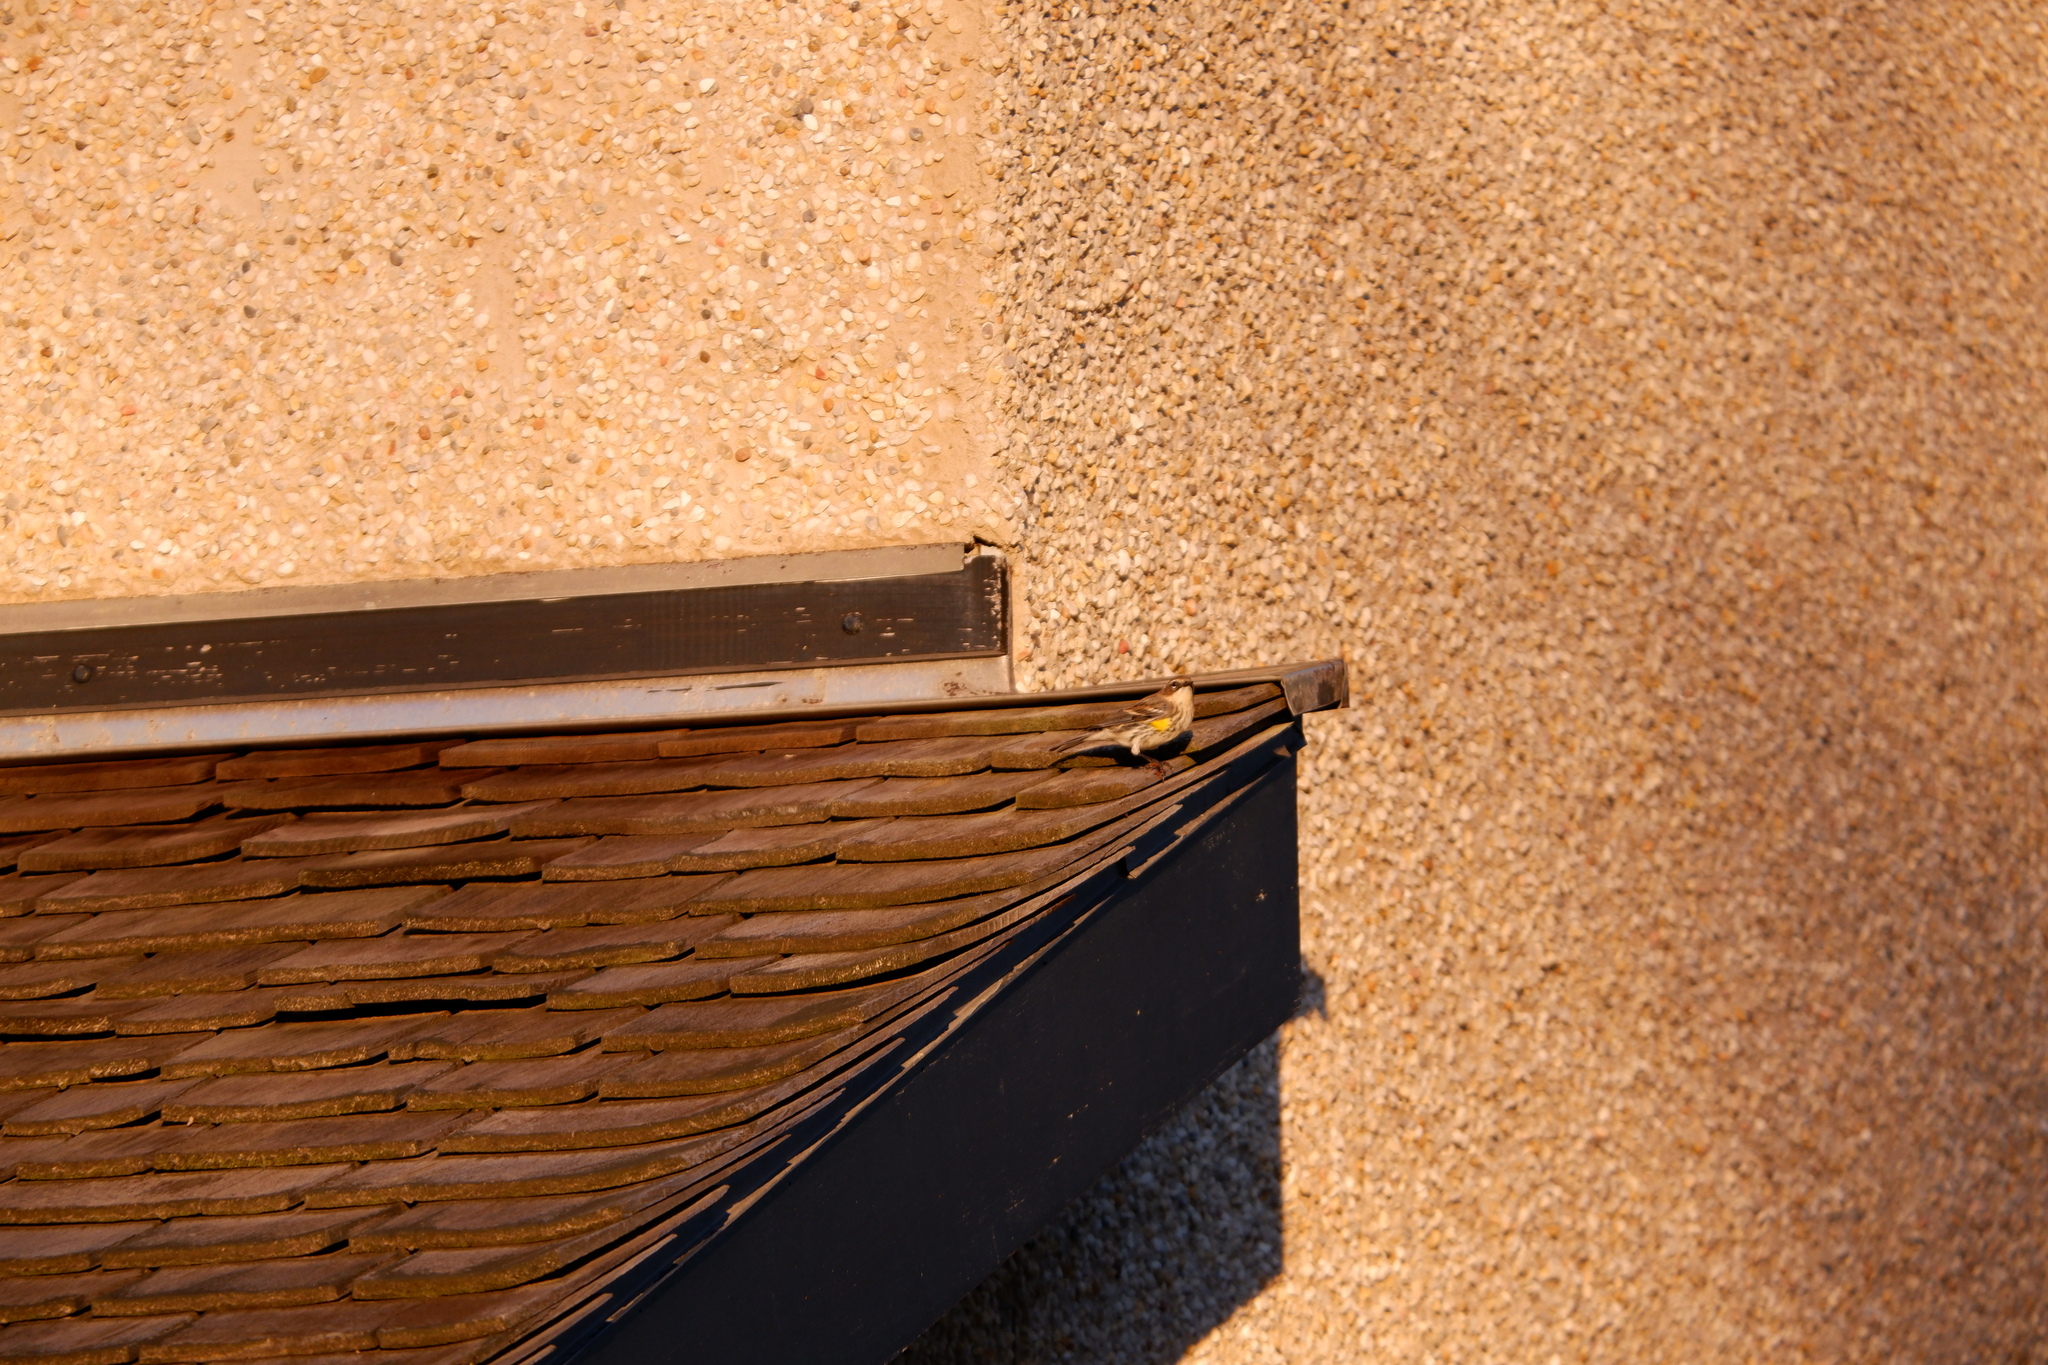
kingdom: Animalia
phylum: Chordata
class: Aves
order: Passeriformes
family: Parulidae
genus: Setophaga
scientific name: Setophaga coronata
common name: Myrtle warbler
